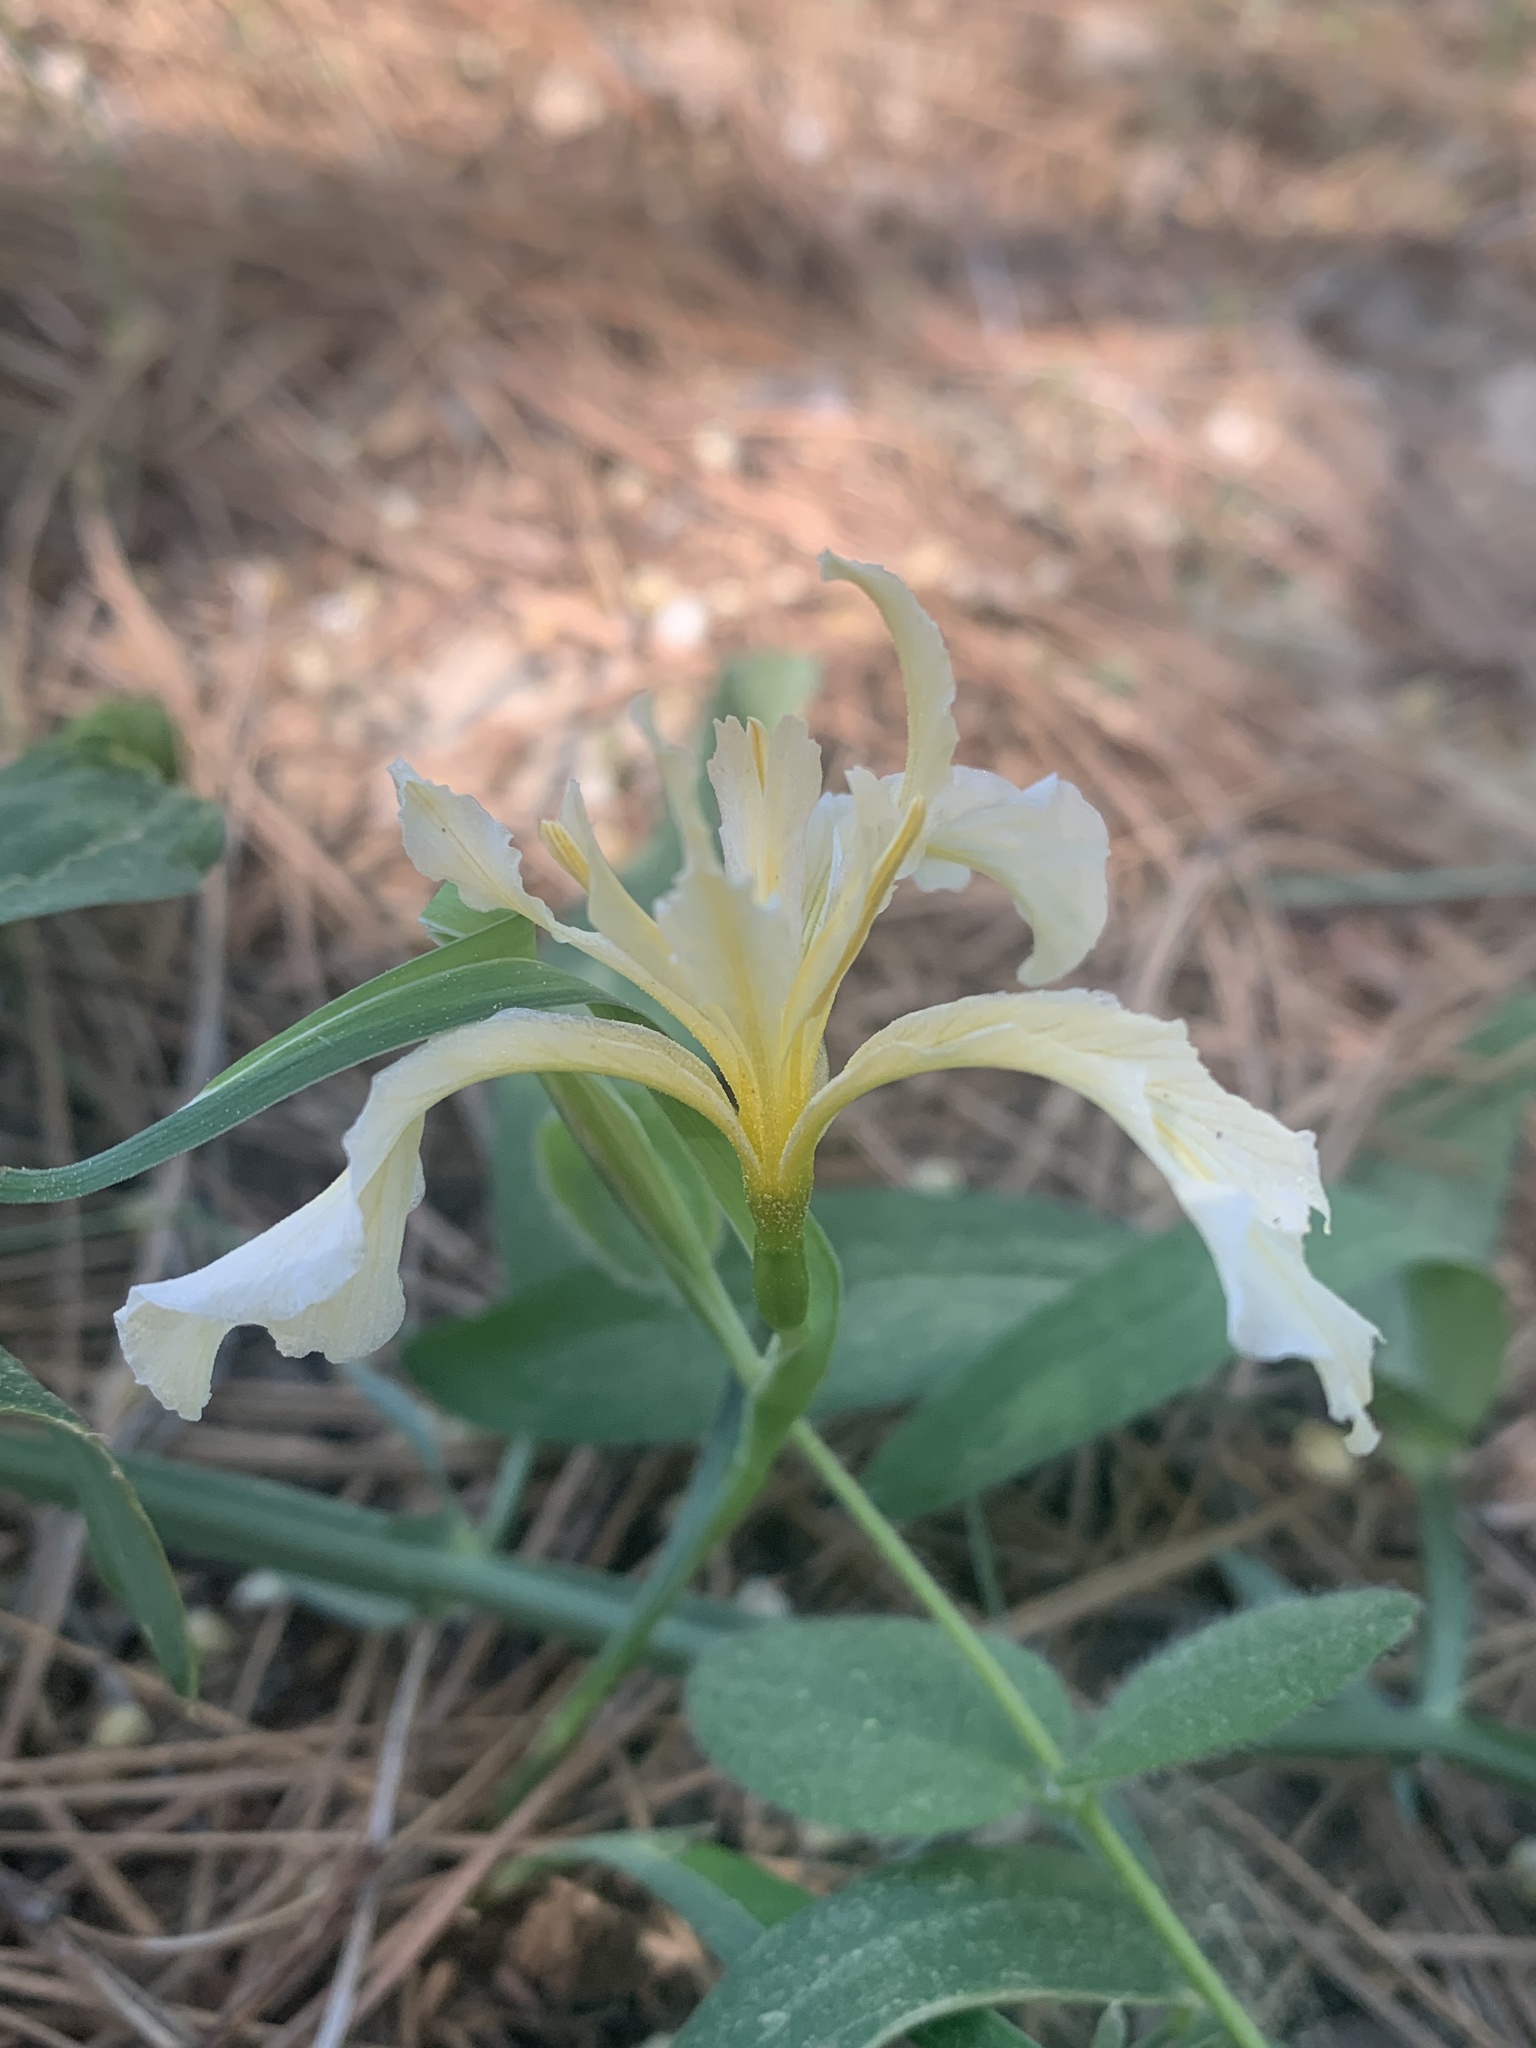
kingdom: Plantae
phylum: Tracheophyta
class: Liliopsida
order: Asparagales
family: Iridaceae
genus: Iris
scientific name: Iris hartwegii
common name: Sierra iris
